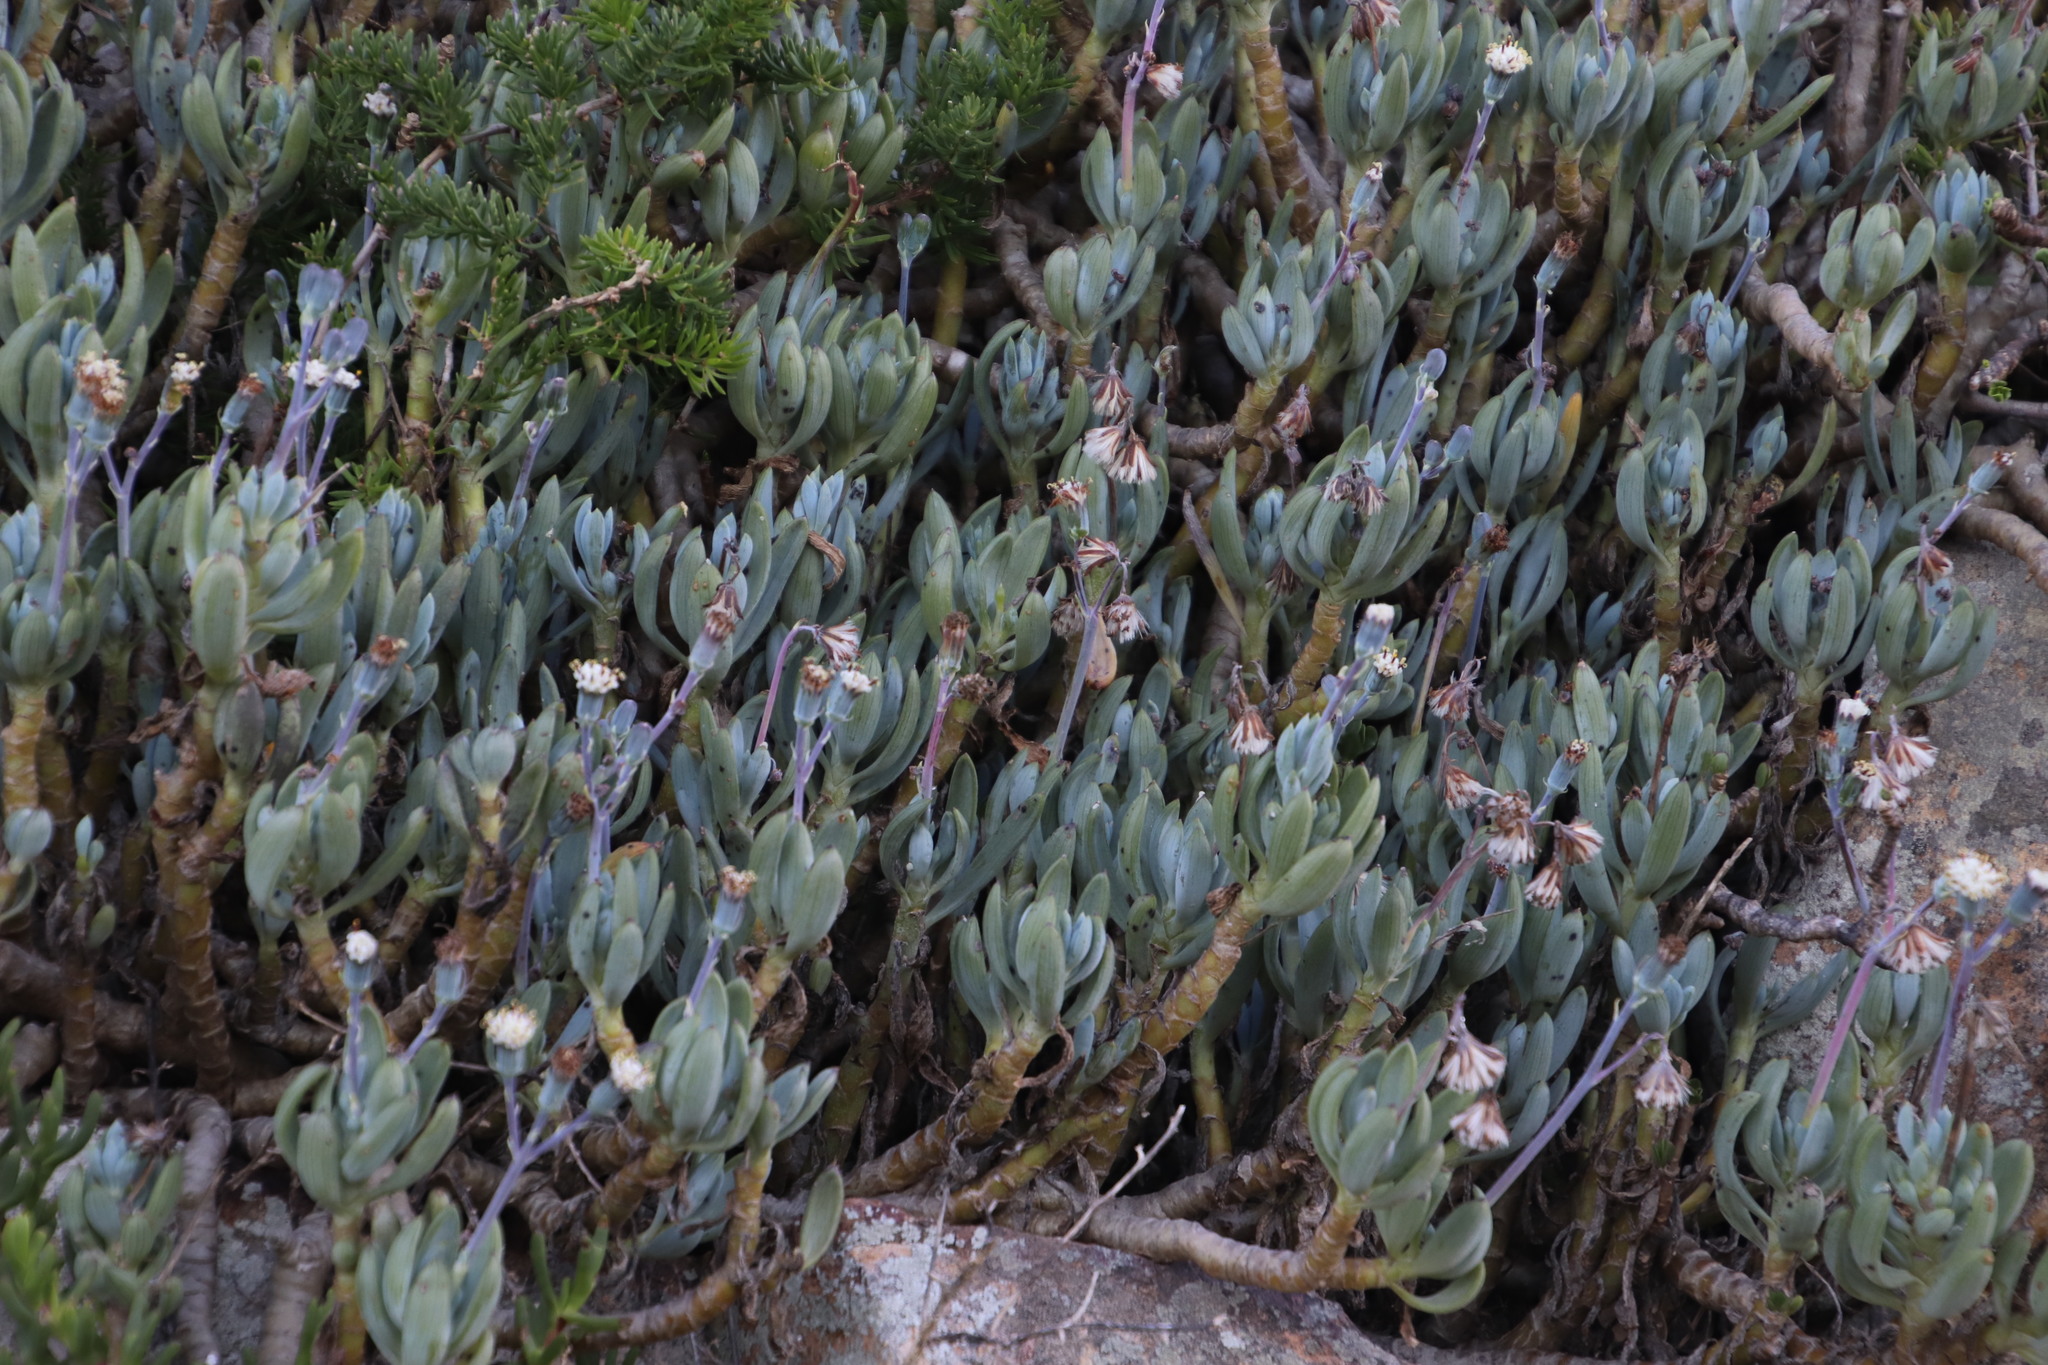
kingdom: Plantae
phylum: Tracheophyta
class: Magnoliopsida
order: Asterales
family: Asteraceae
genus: Curio
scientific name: Curio crassulifolius
